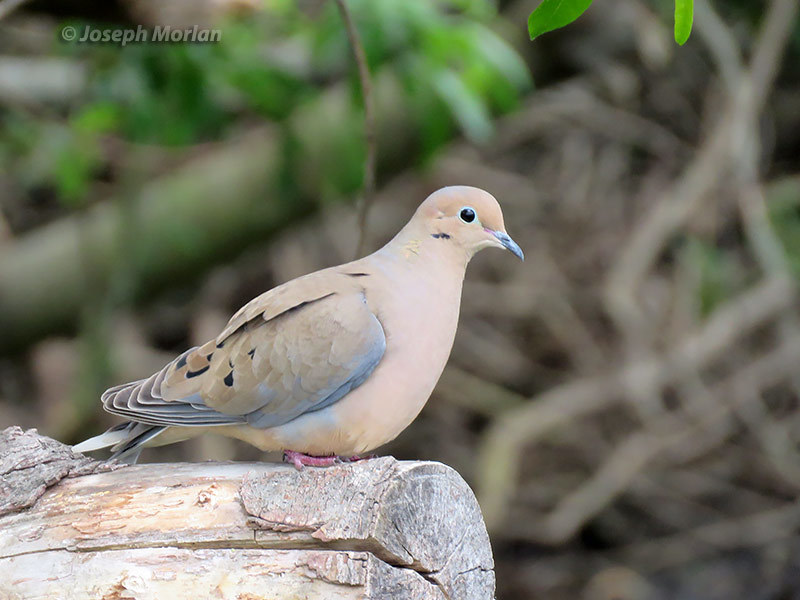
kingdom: Animalia
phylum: Chordata
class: Aves
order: Columbiformes
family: Columbidae
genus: Zenaida
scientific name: Zenaida macroura
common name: Mourning dove
